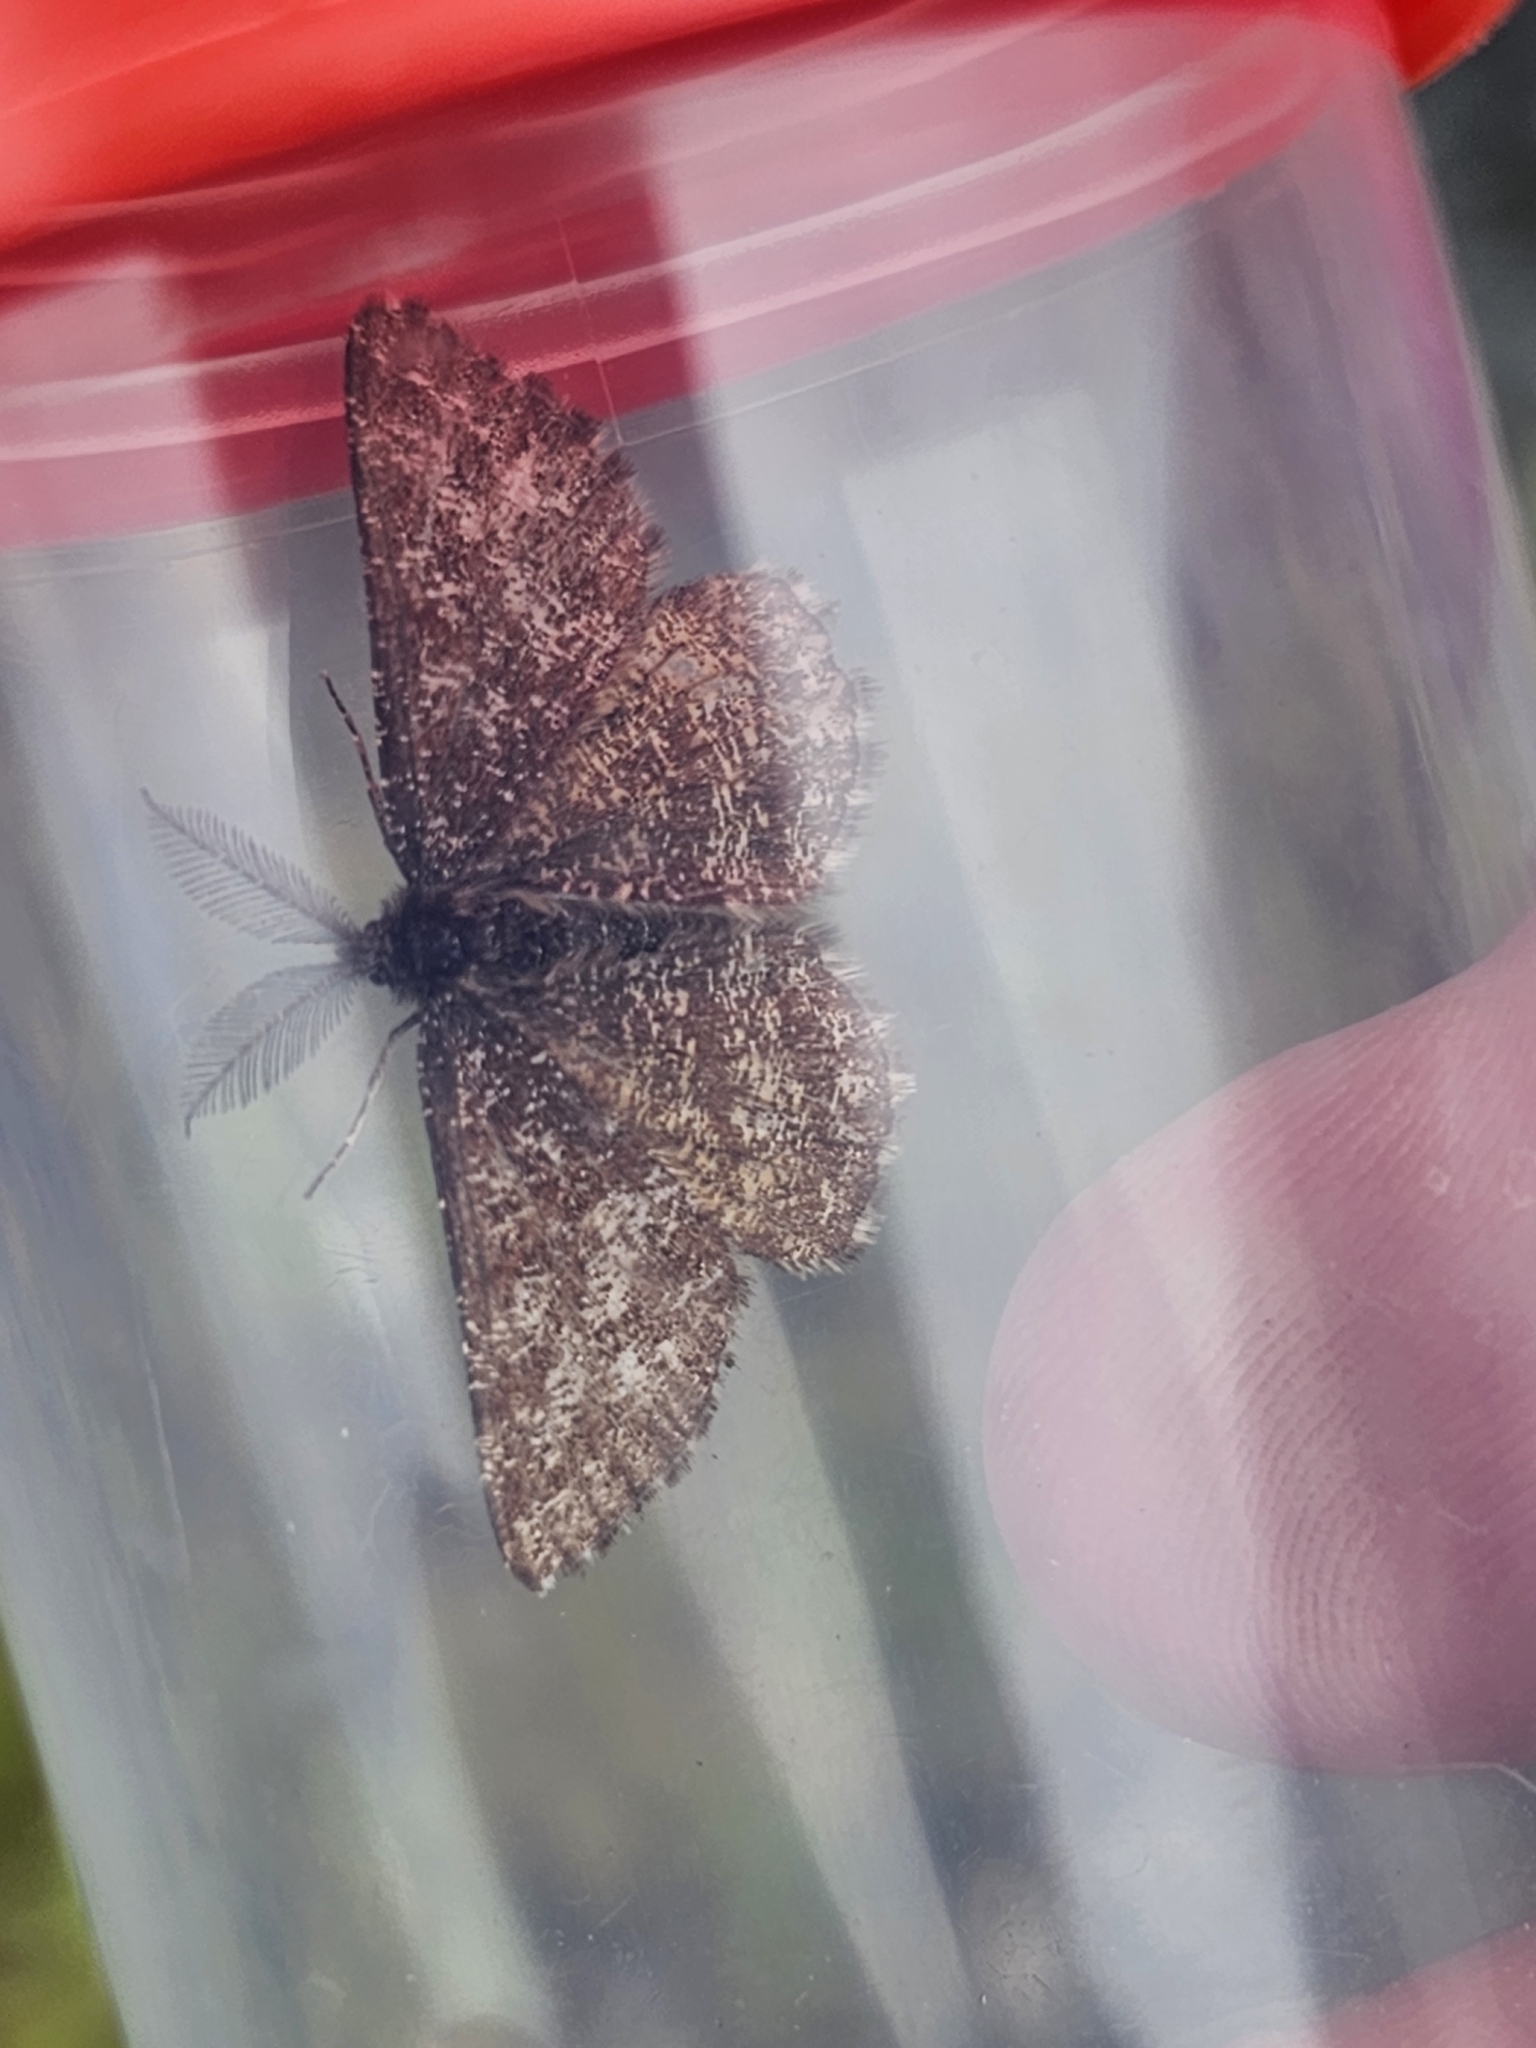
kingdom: Animalia
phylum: Arthropoda
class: Insecta
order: Lepidoptera
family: Geometridae
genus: Ematurga
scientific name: Ematurga atomaria
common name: Common heath
